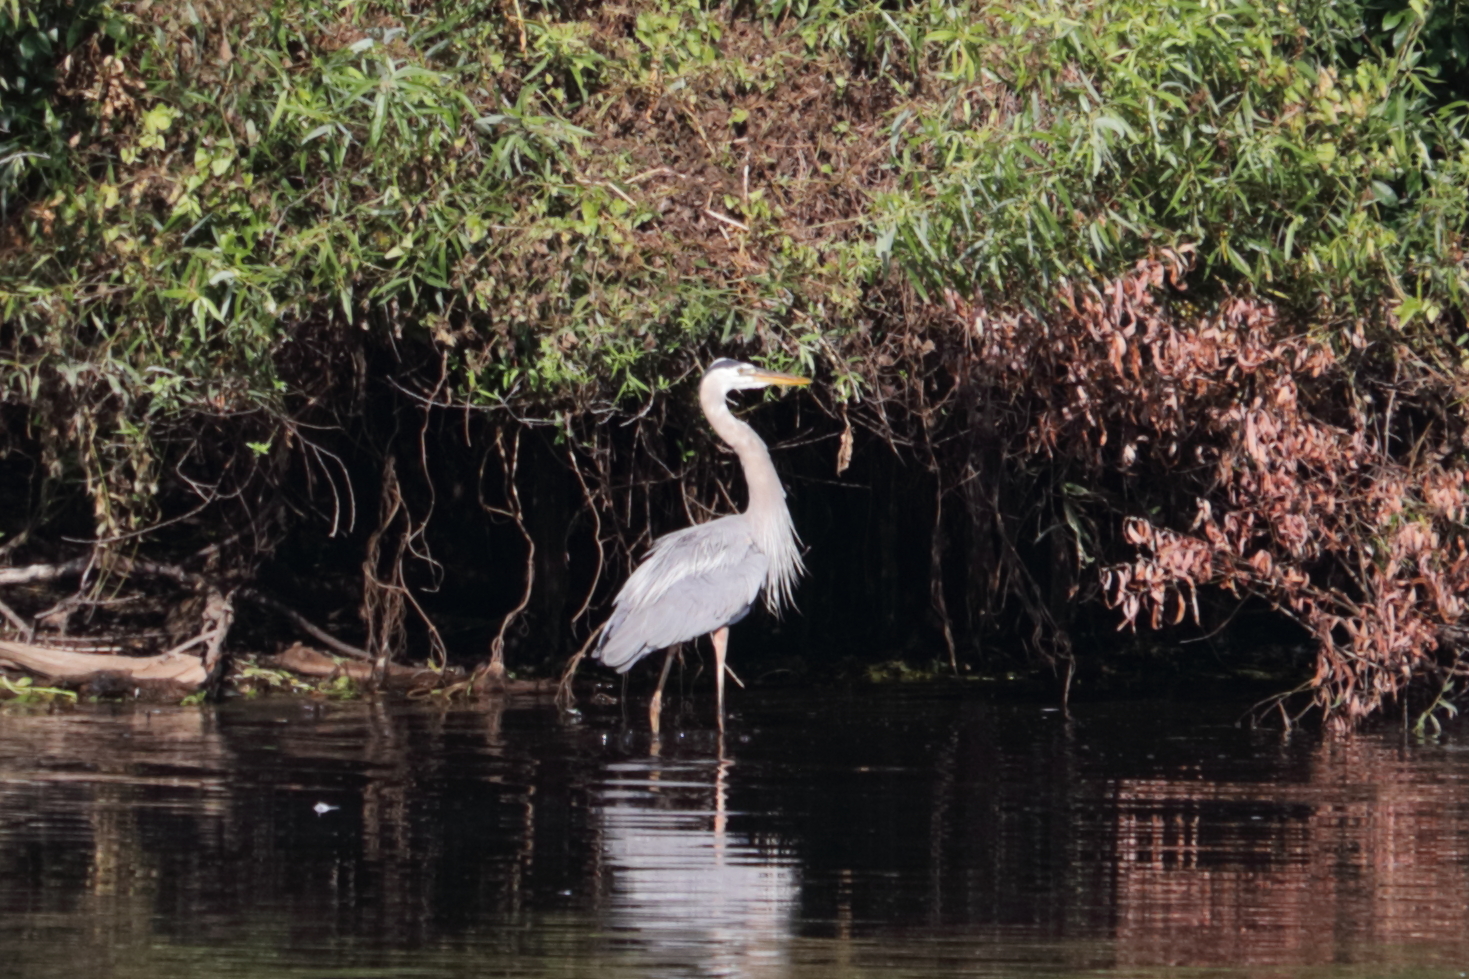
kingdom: Animalia
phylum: Chordata
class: Aves
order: Pelecaniformes
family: Ardeidae
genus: Ardea
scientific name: Ardea herodias
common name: Great blue heron
